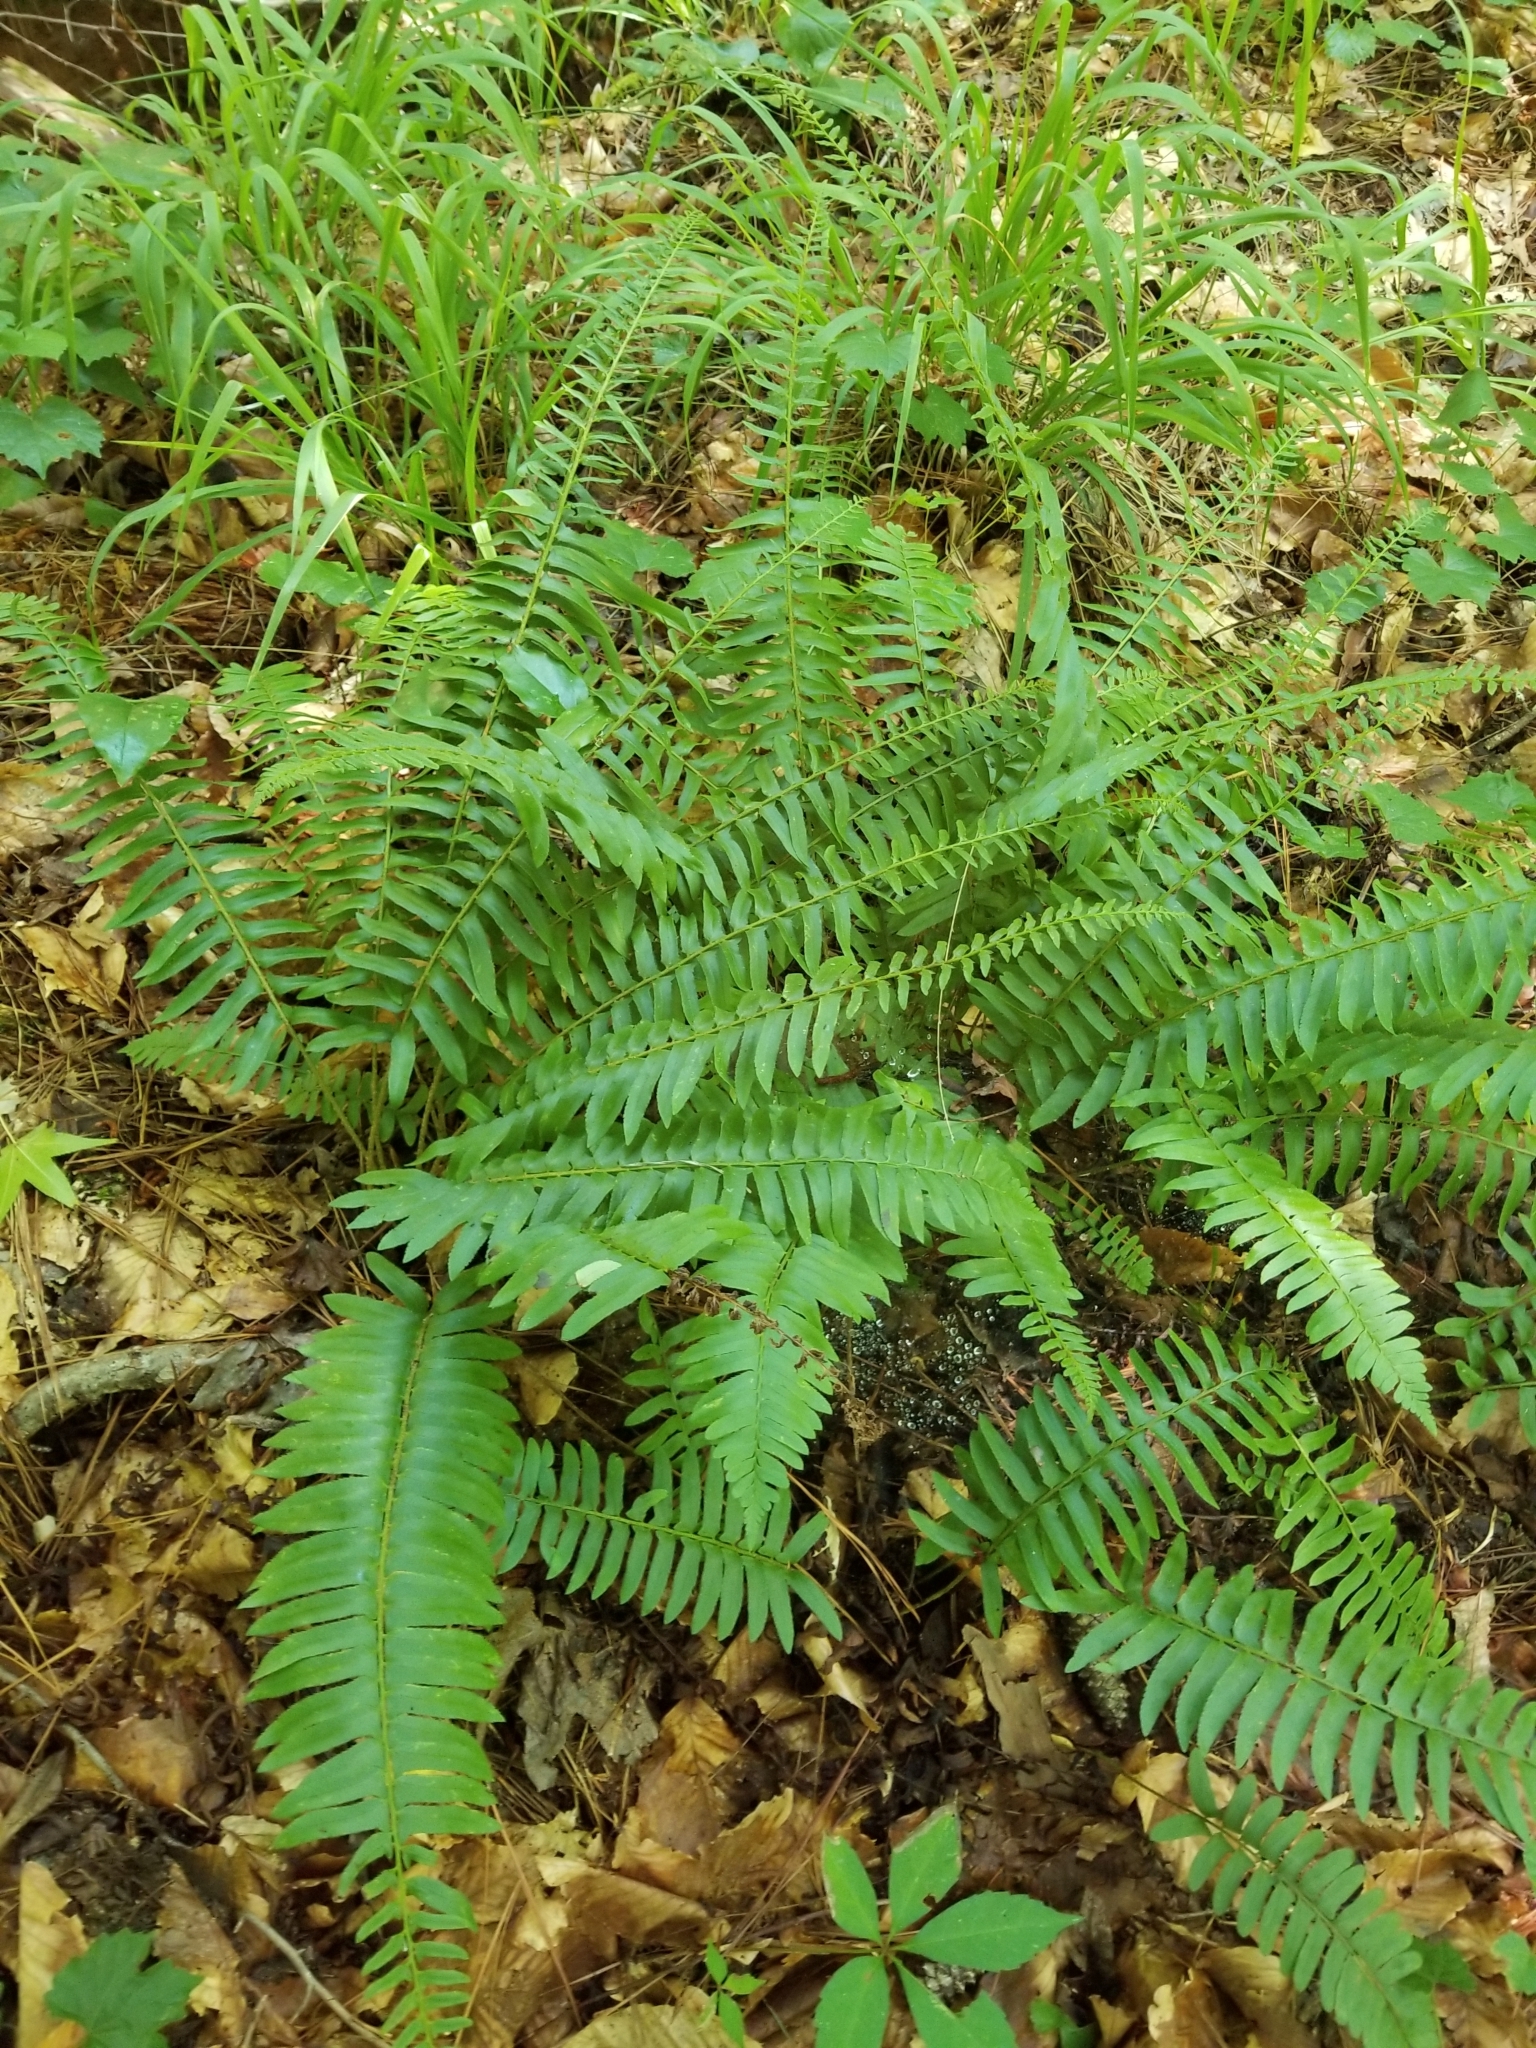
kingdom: Plantae
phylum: Tracheophyta
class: Polypodiopsida
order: Polypodiales
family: Dryopteridaceae
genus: Polystichum
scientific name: Polystichum acrostichoides
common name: Christmas fern
